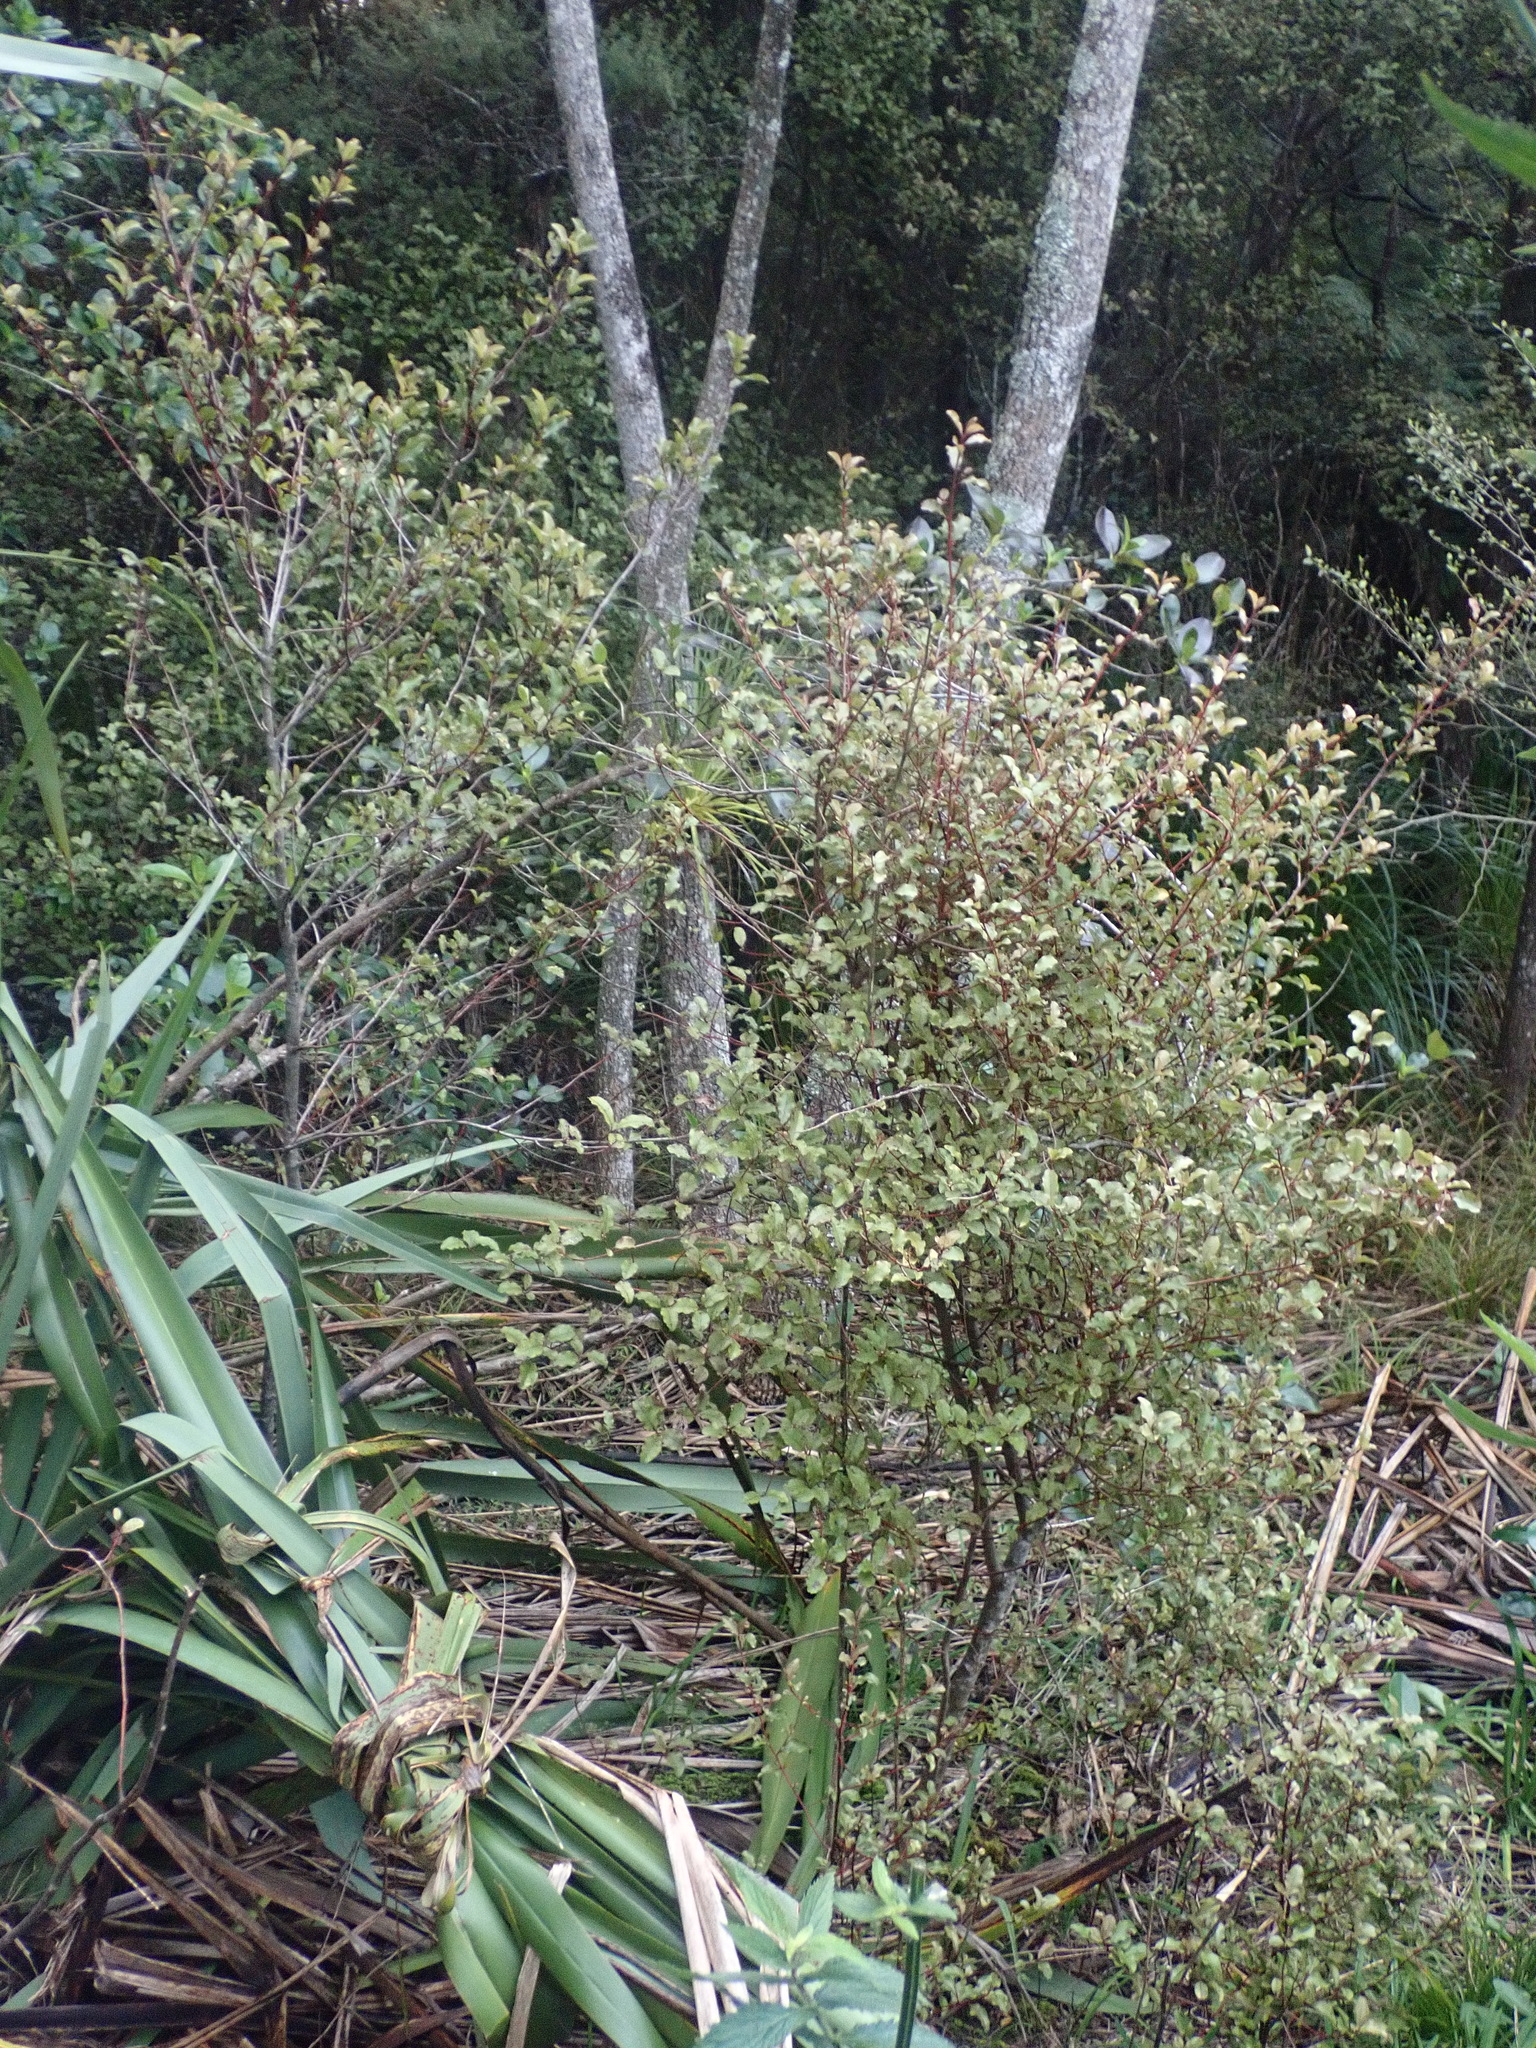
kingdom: Plantae
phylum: Tracheophyta
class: Magnoliopsida
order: Ericales
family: Primulaceae
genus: Myrsine
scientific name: Myrsine australis
